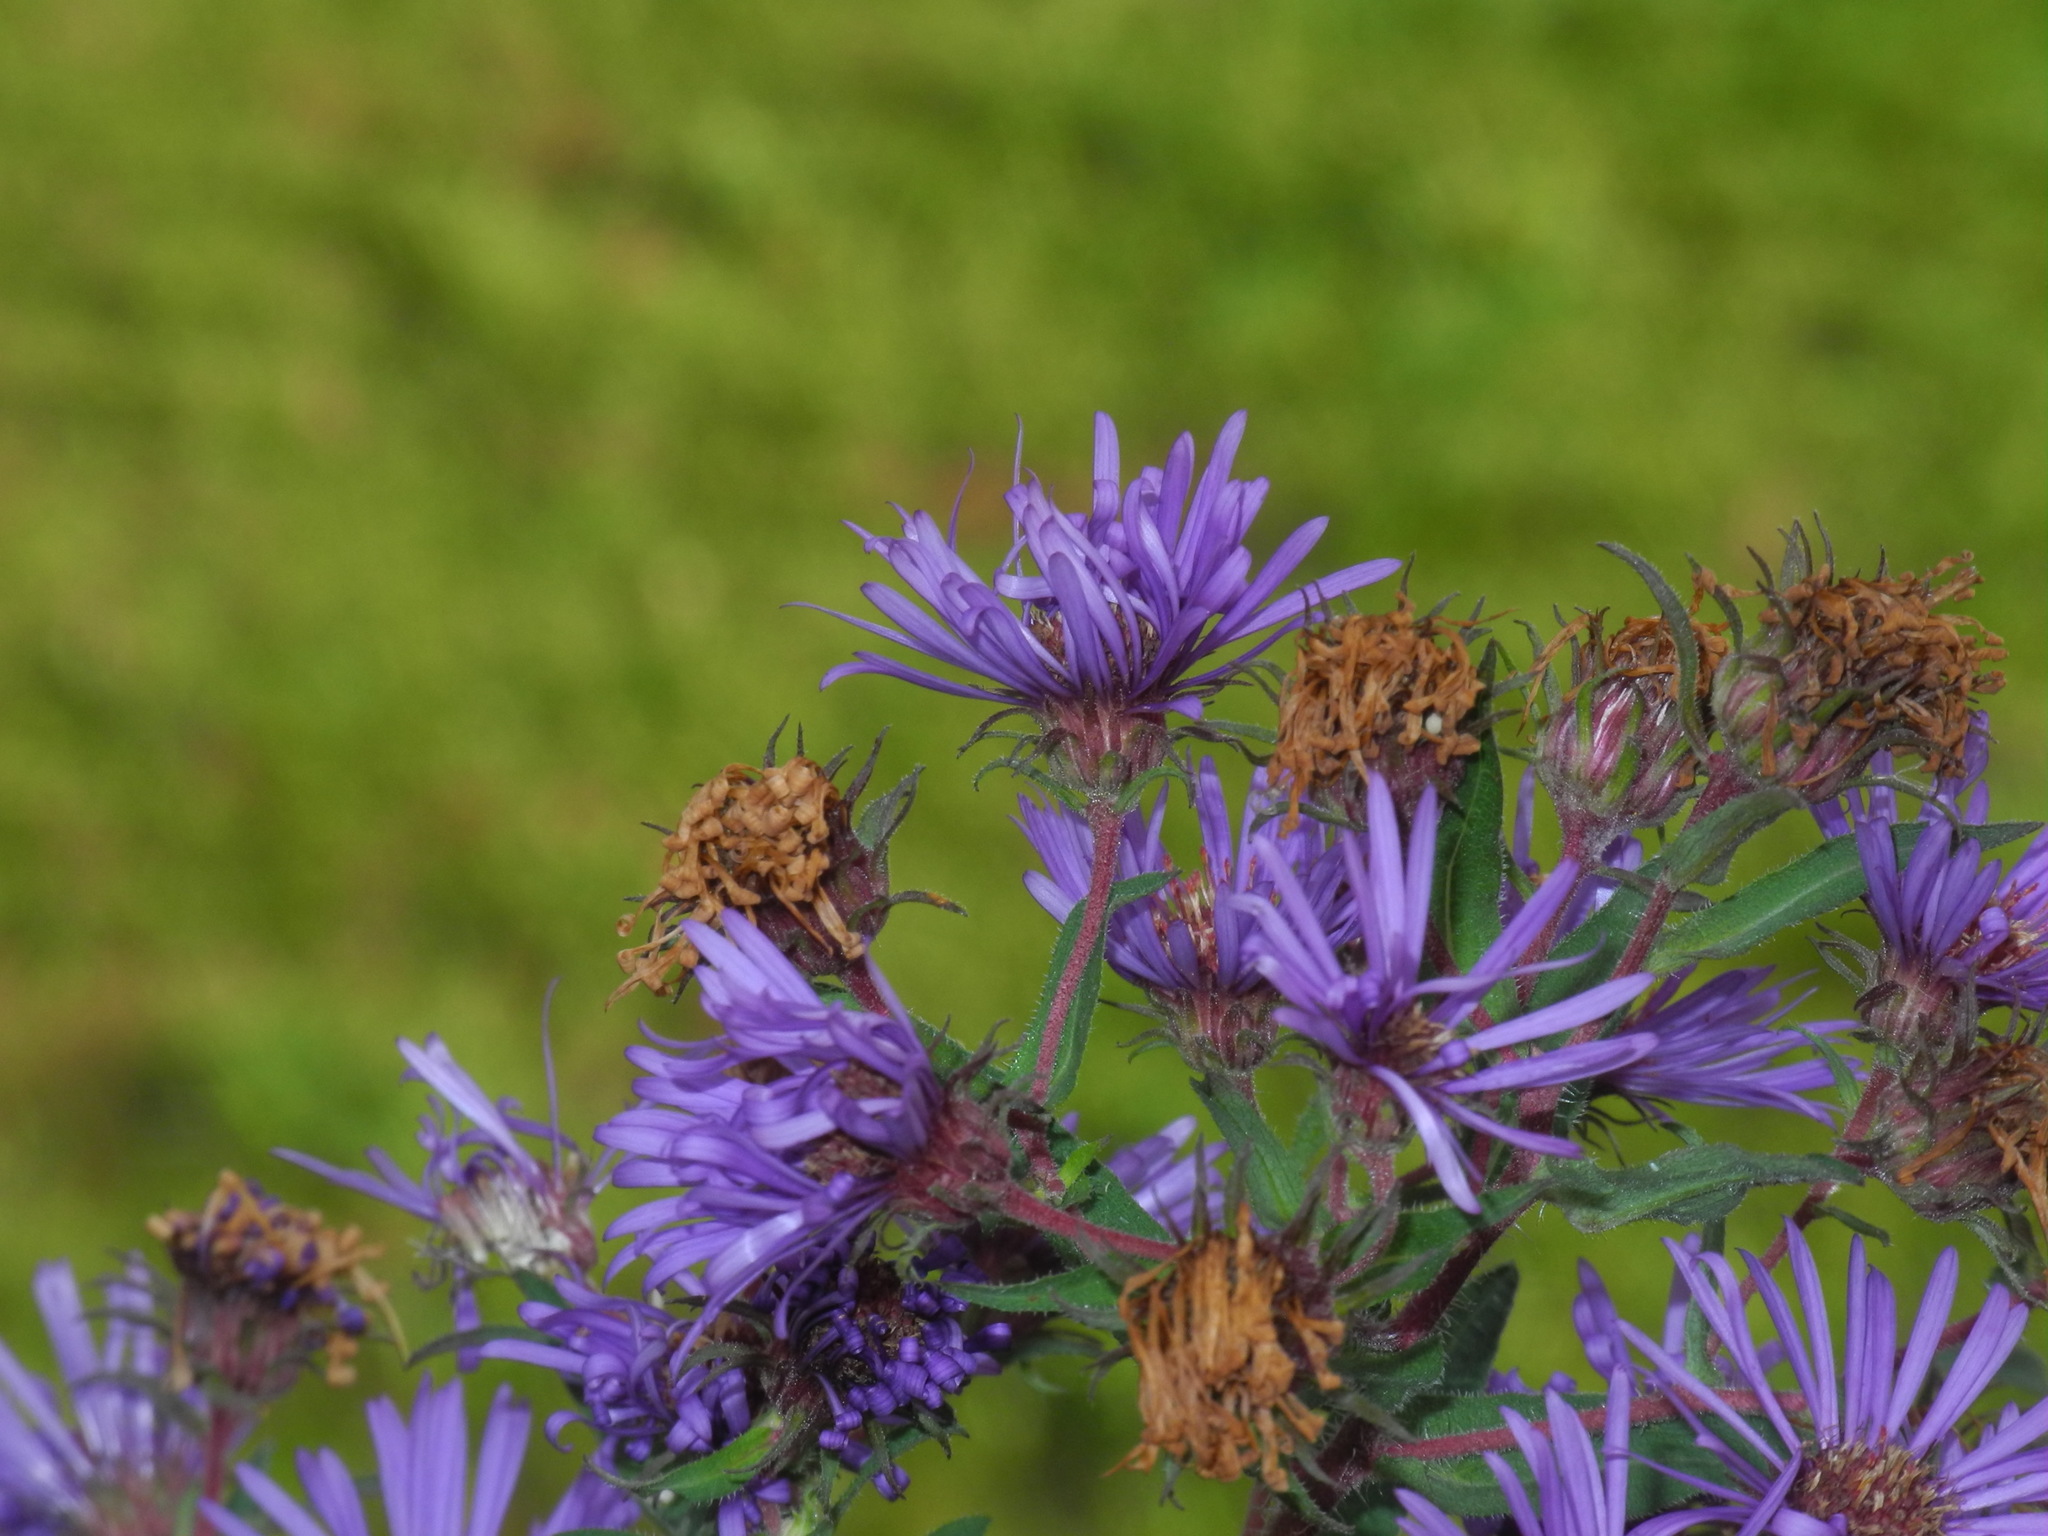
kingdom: Plantae
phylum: Tracheophyta
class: Magnoliopsida
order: Asterales
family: Asteraceae
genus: Symphyotrichum
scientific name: Symphyotrichum novae-angliae
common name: Michaelmas daisy
